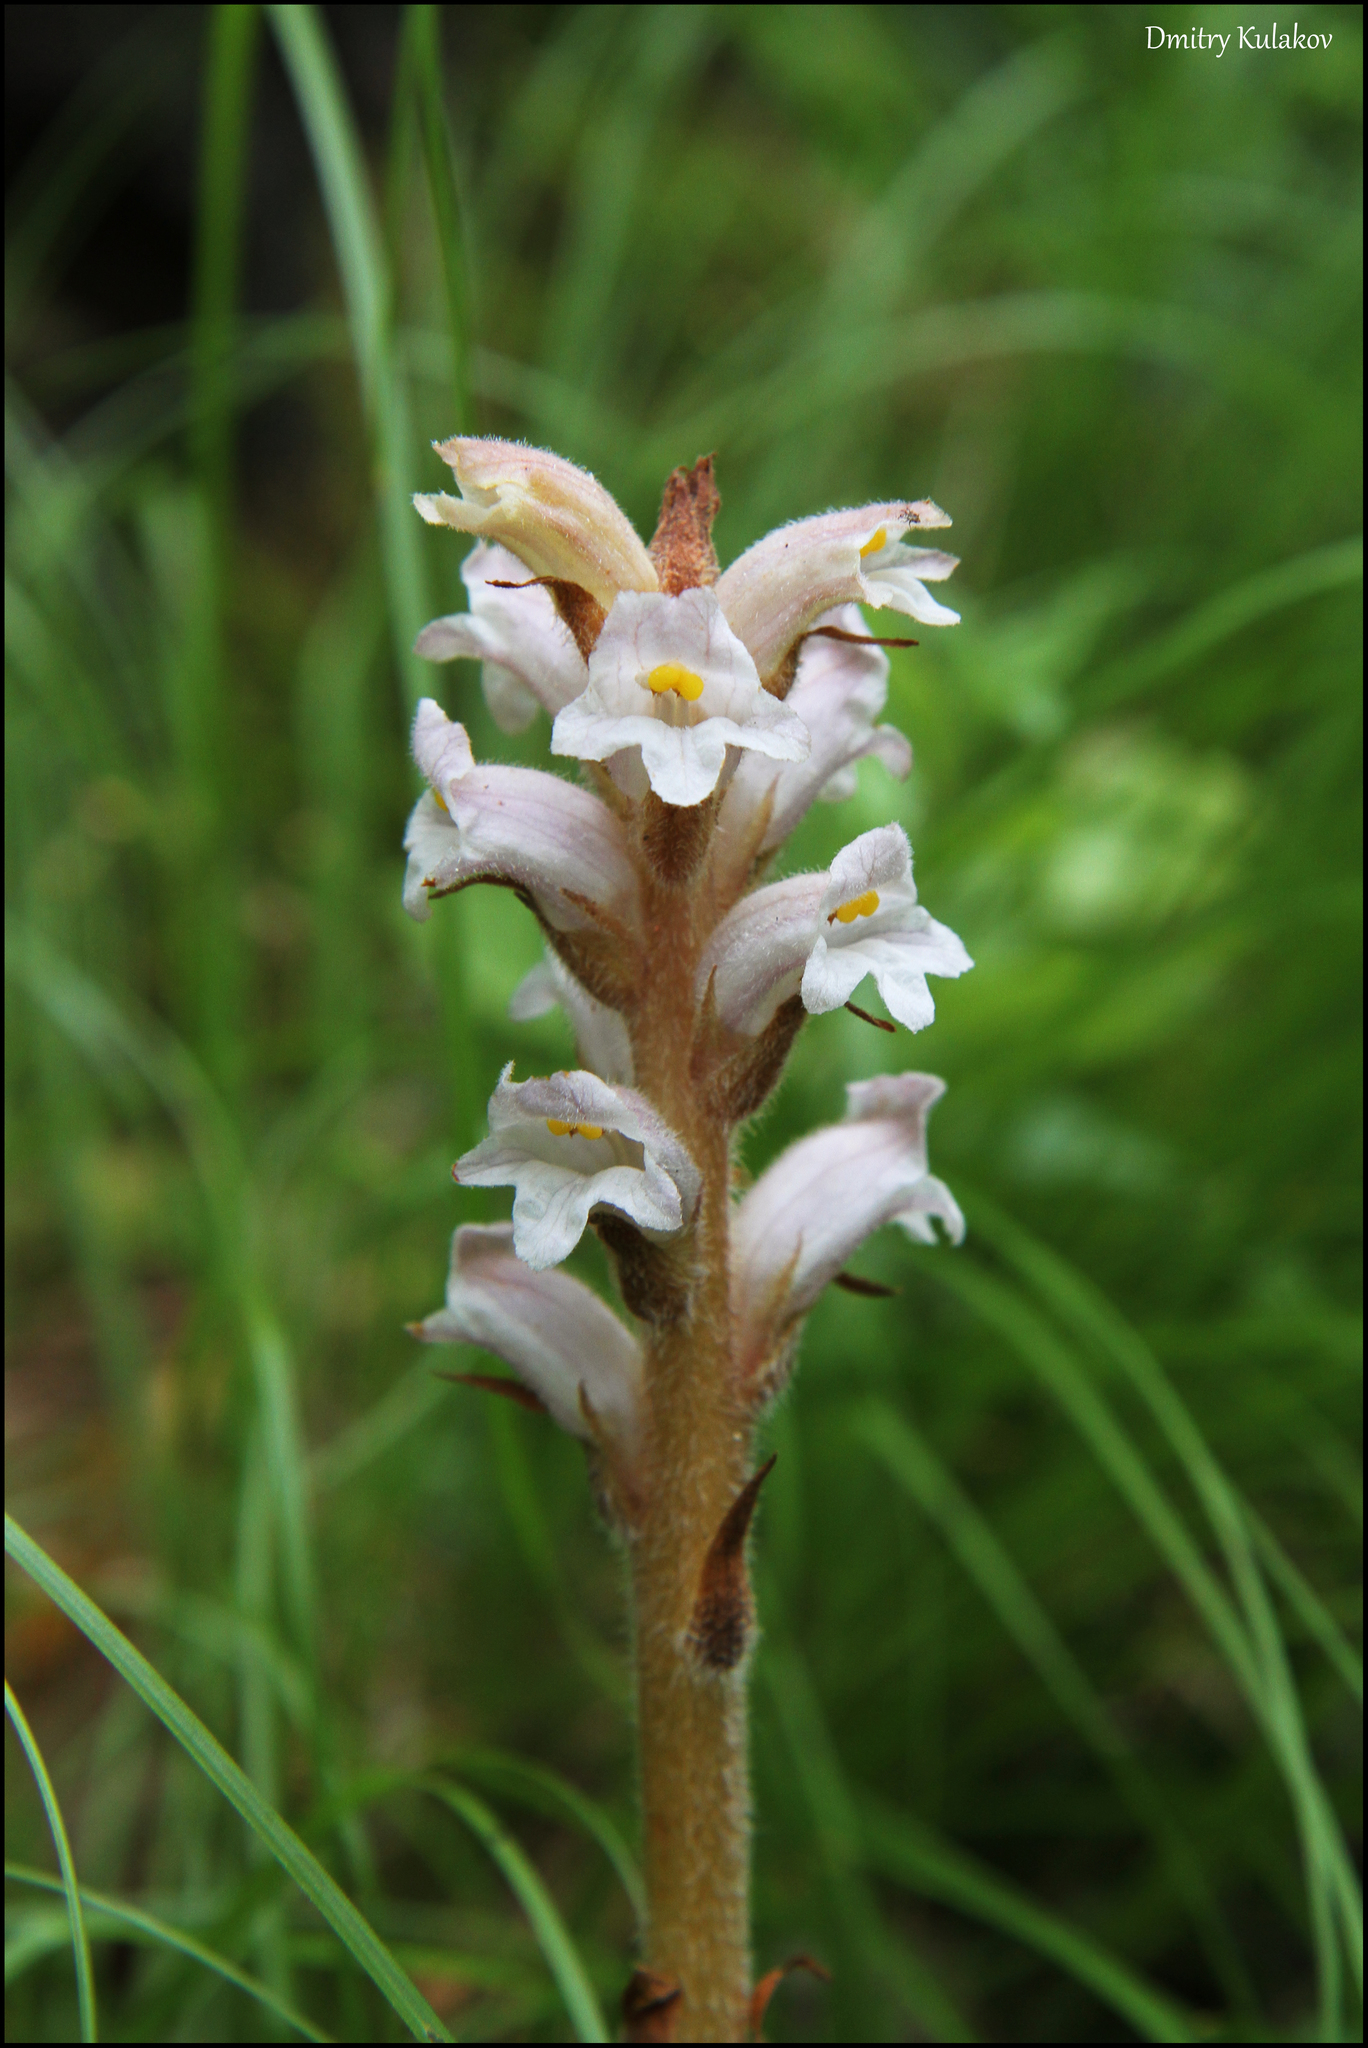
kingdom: Plantae
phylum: Tracheophyta
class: Magnoliopsida
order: Lamiales
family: Orobanchaceae
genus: Orobanche
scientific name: Orobanche krylowii
